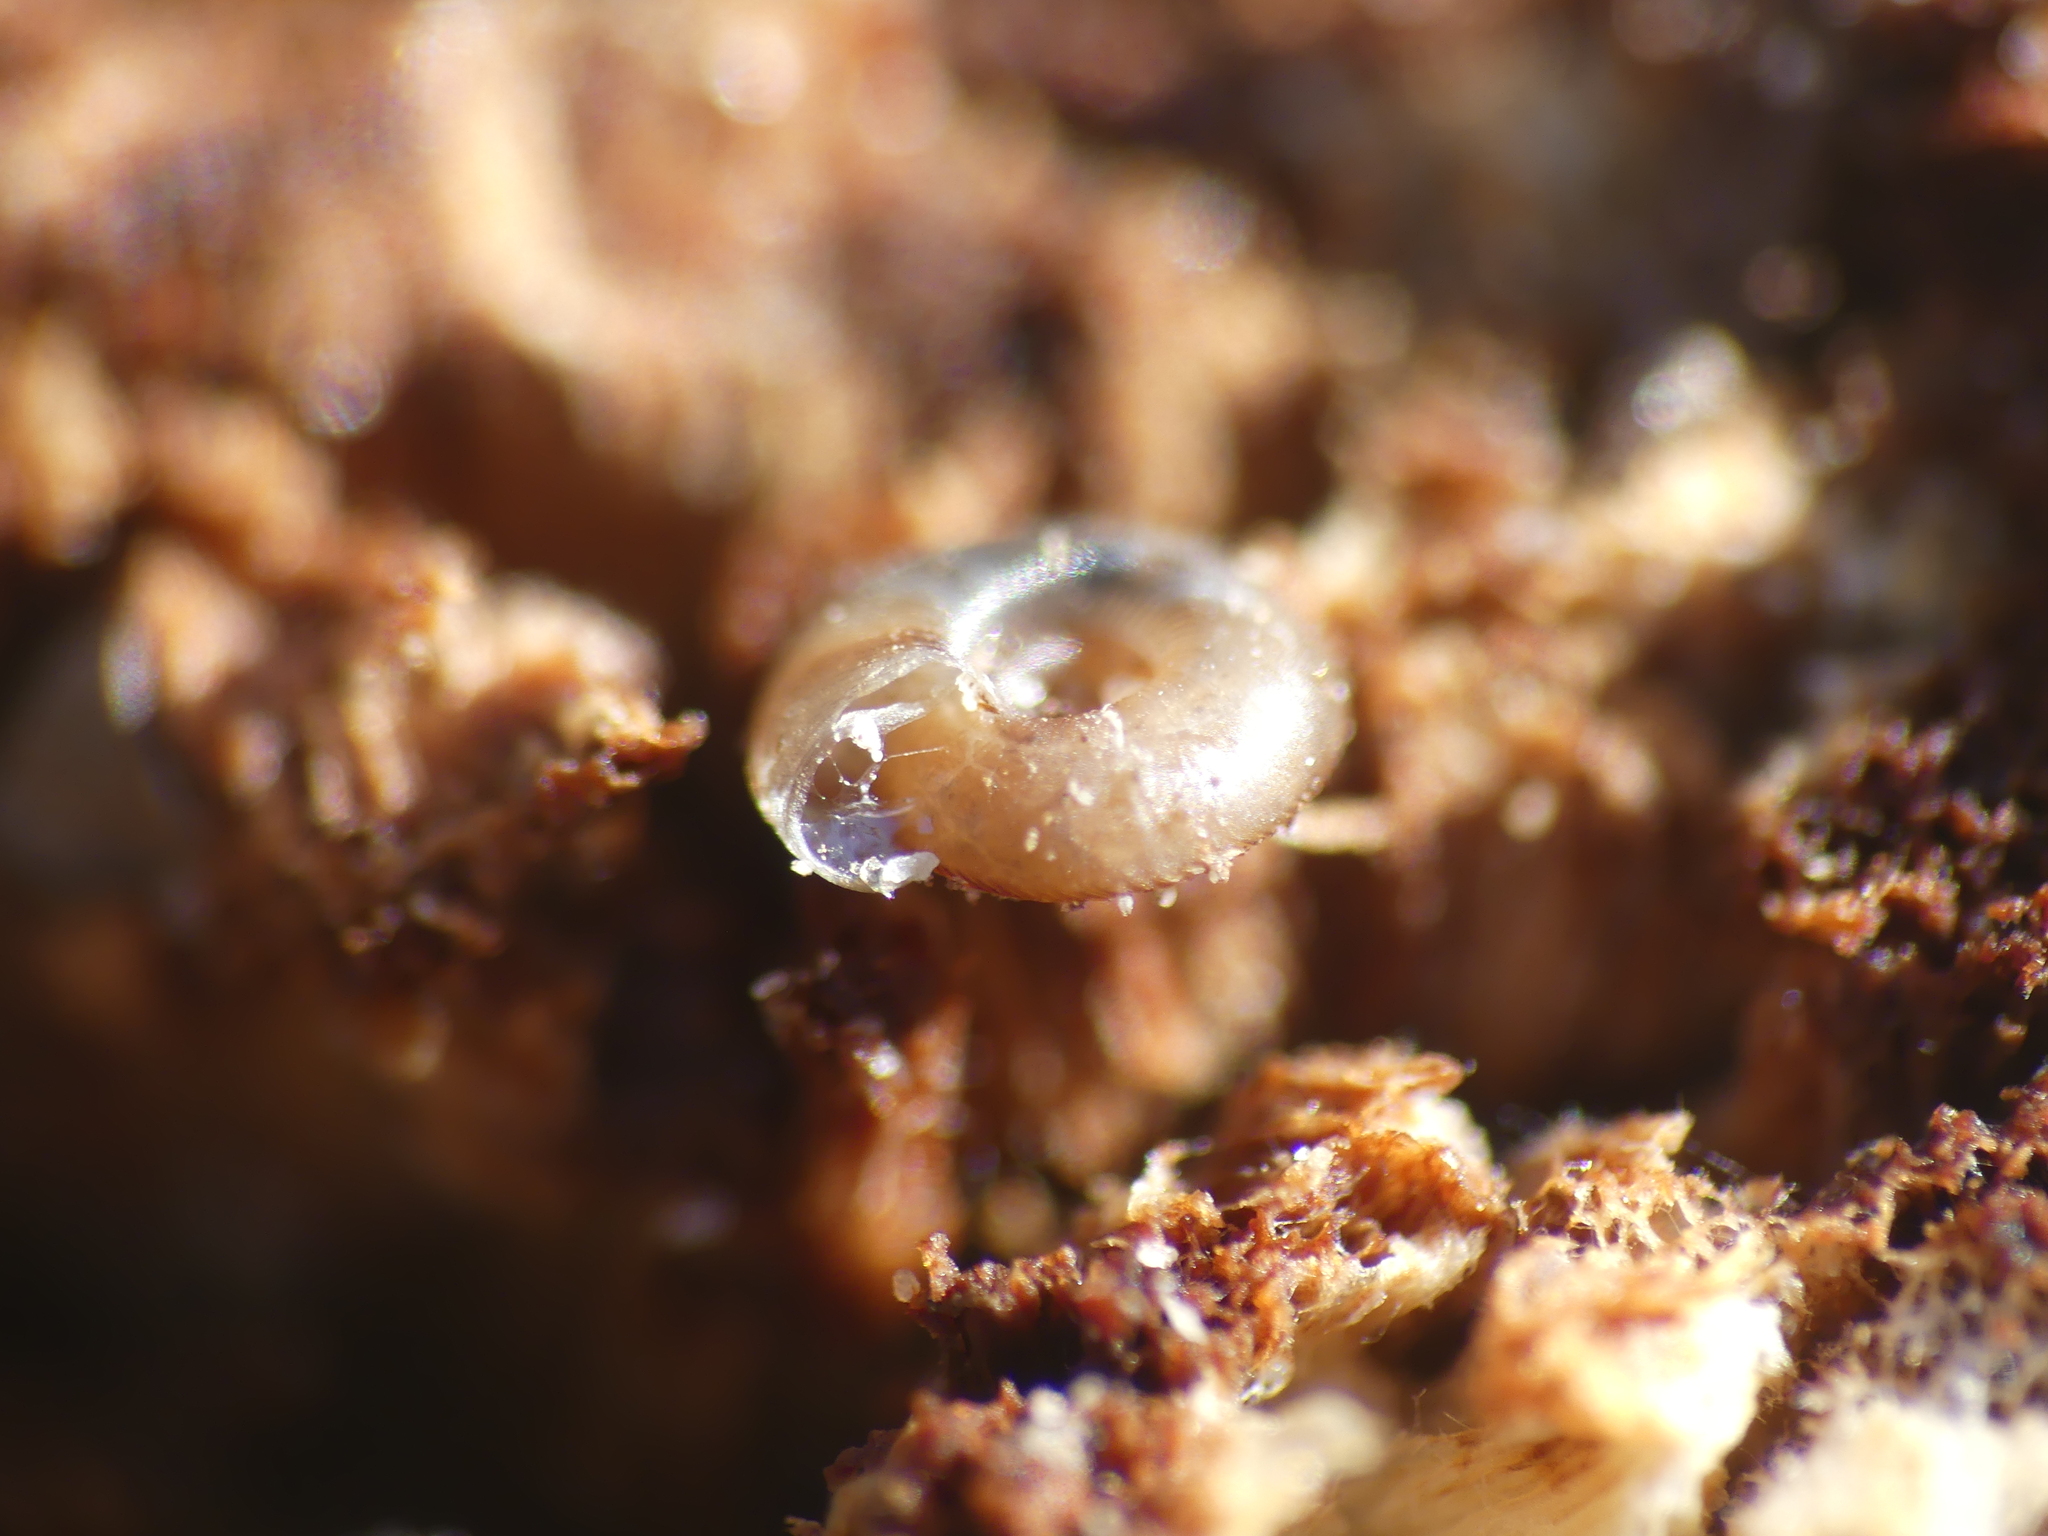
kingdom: Animalia
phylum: Mollusca
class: Gastropoda
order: Stylommatophora
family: Discidae
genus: Discus
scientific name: Discus rotundatus
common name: Rounded snail
